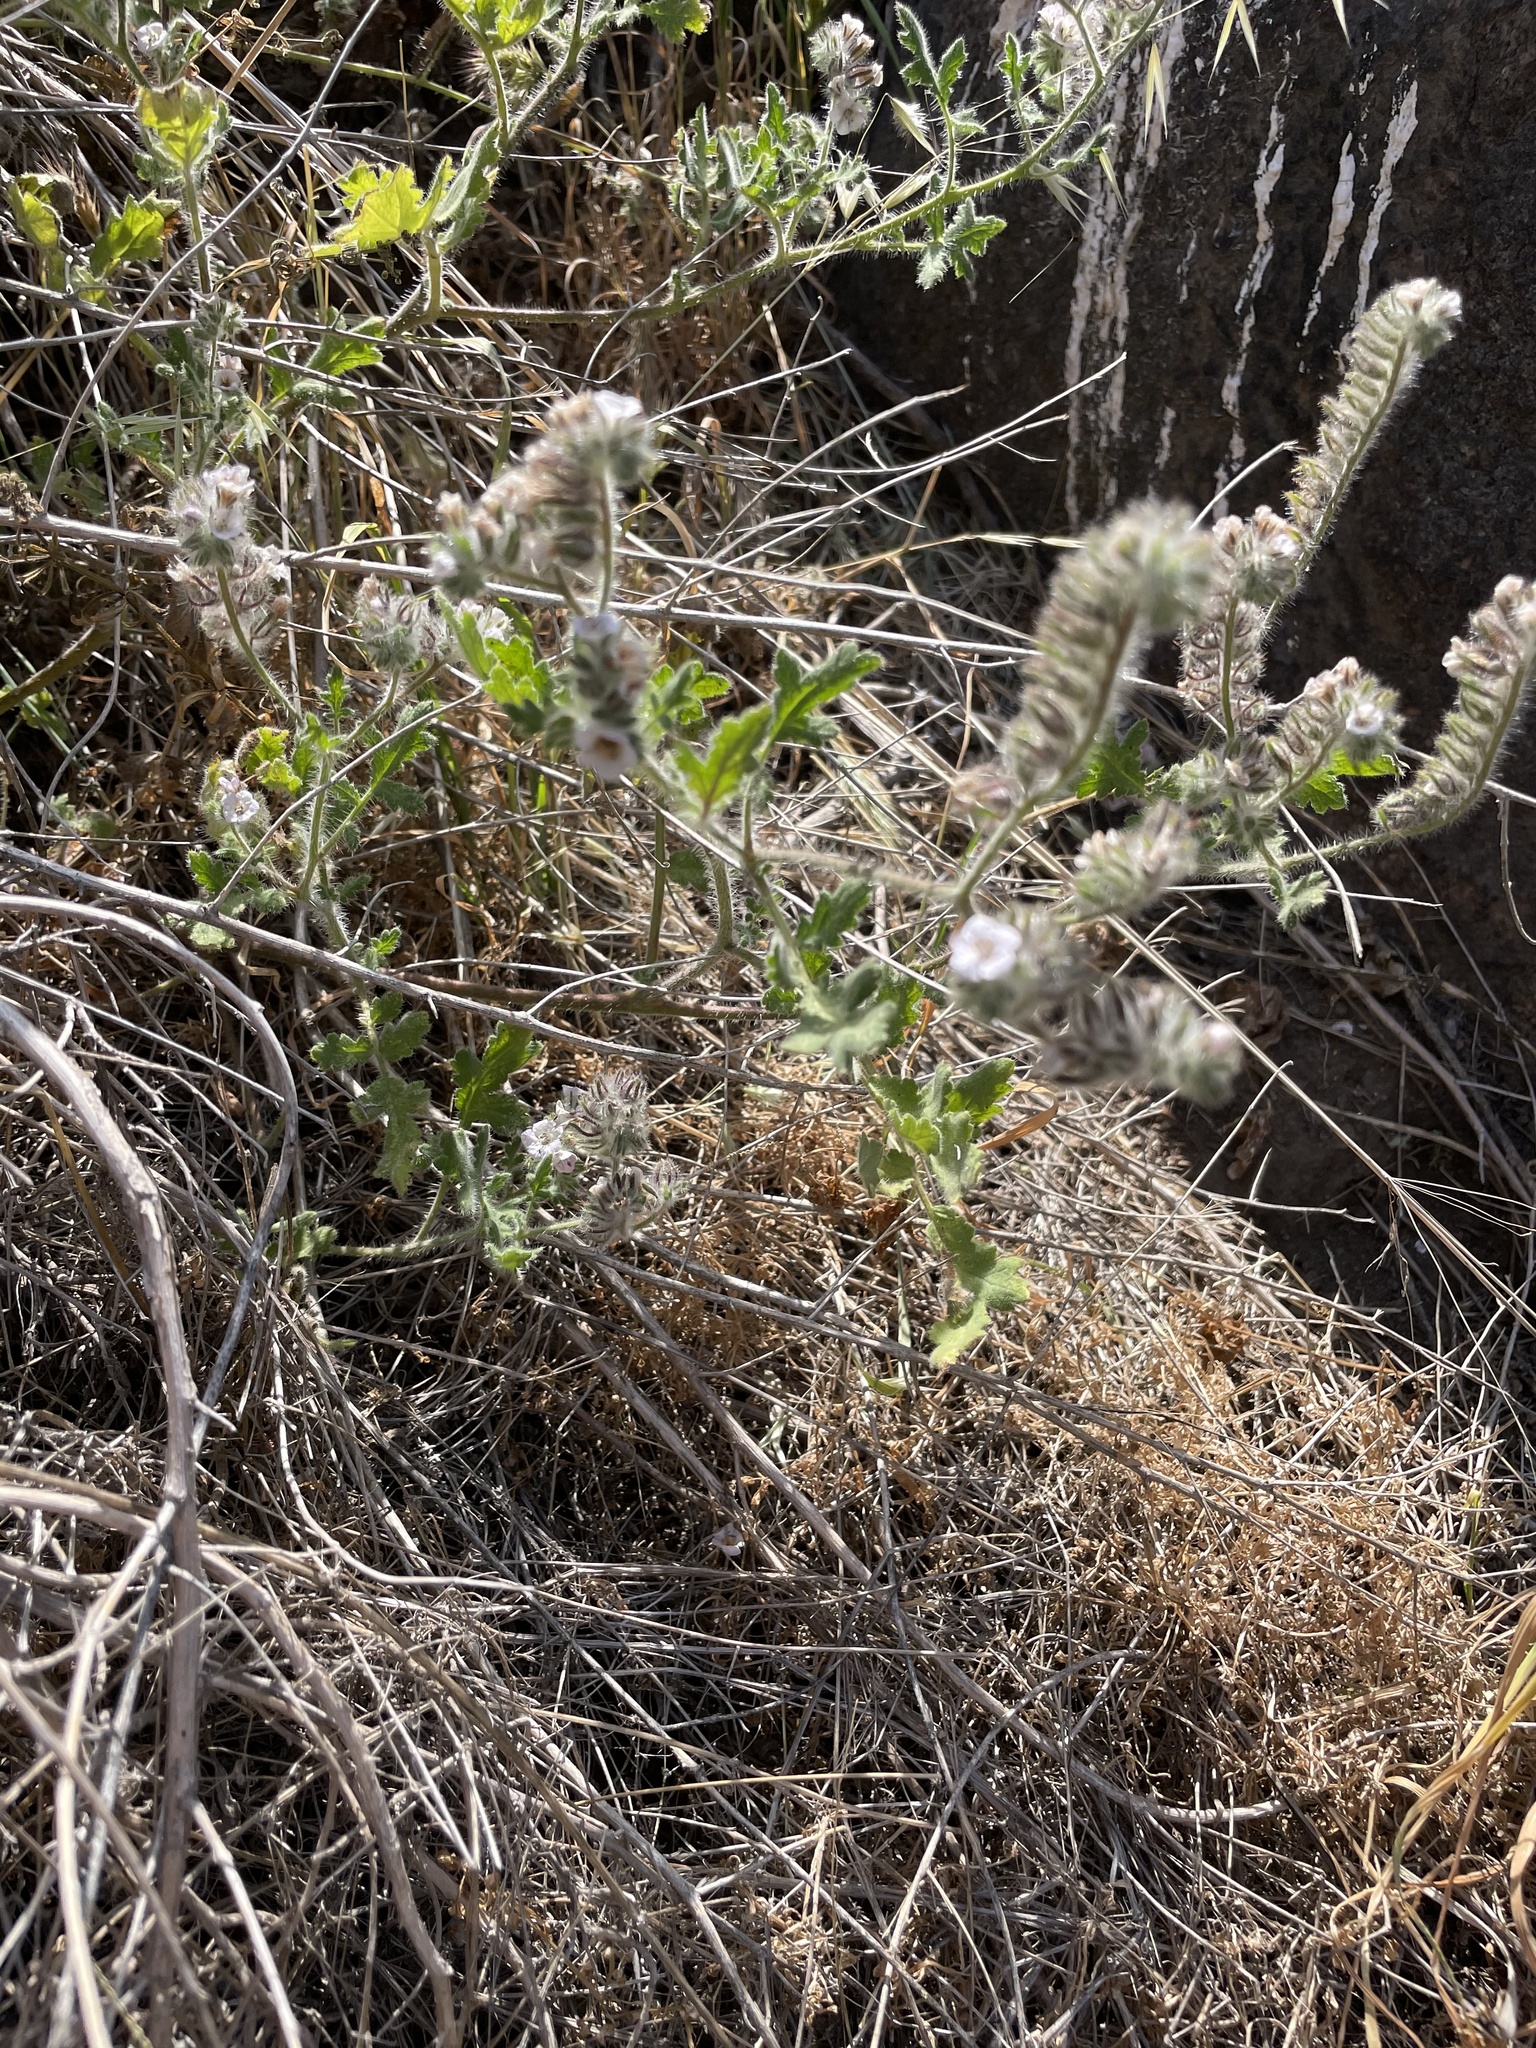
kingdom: Plantae
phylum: Tracheophyta
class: Magnoliopsida
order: Boraginales
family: Hydrophyllaceae
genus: Phacelia
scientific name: Phacelia cicutaria
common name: Caterpillar phacelia
